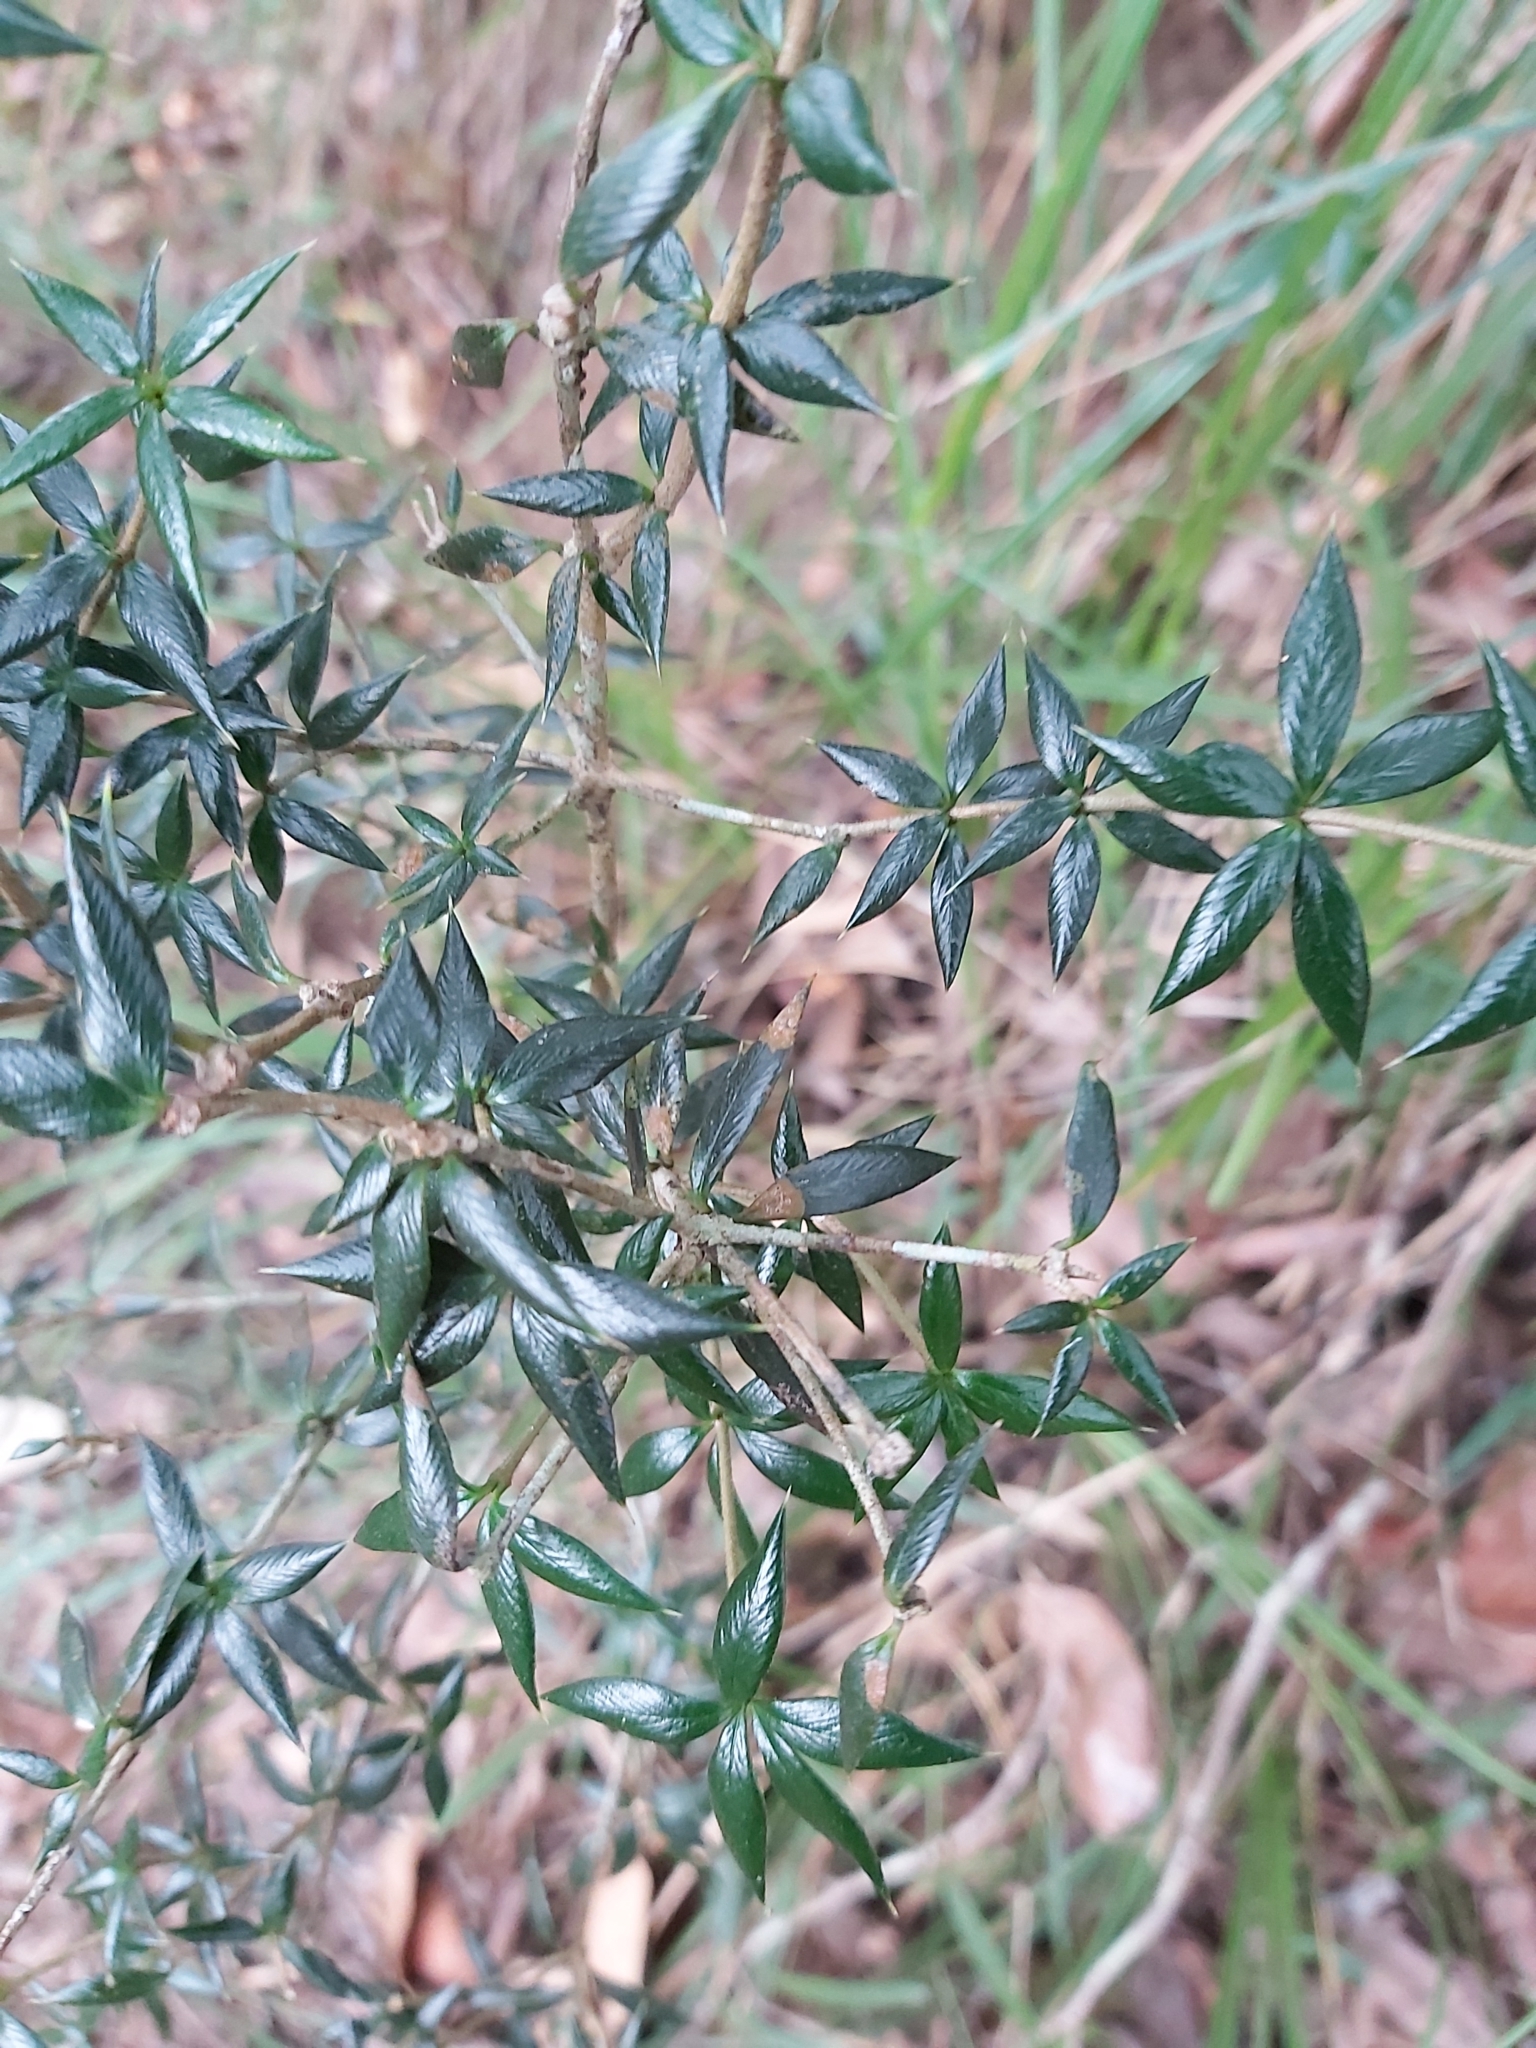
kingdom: Plantae
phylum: Tracheophyta
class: Magnoliopsida
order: Gentianales
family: Apocynaceae
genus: Alyxia
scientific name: Alyxia ruscifolia
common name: Chainfruit
